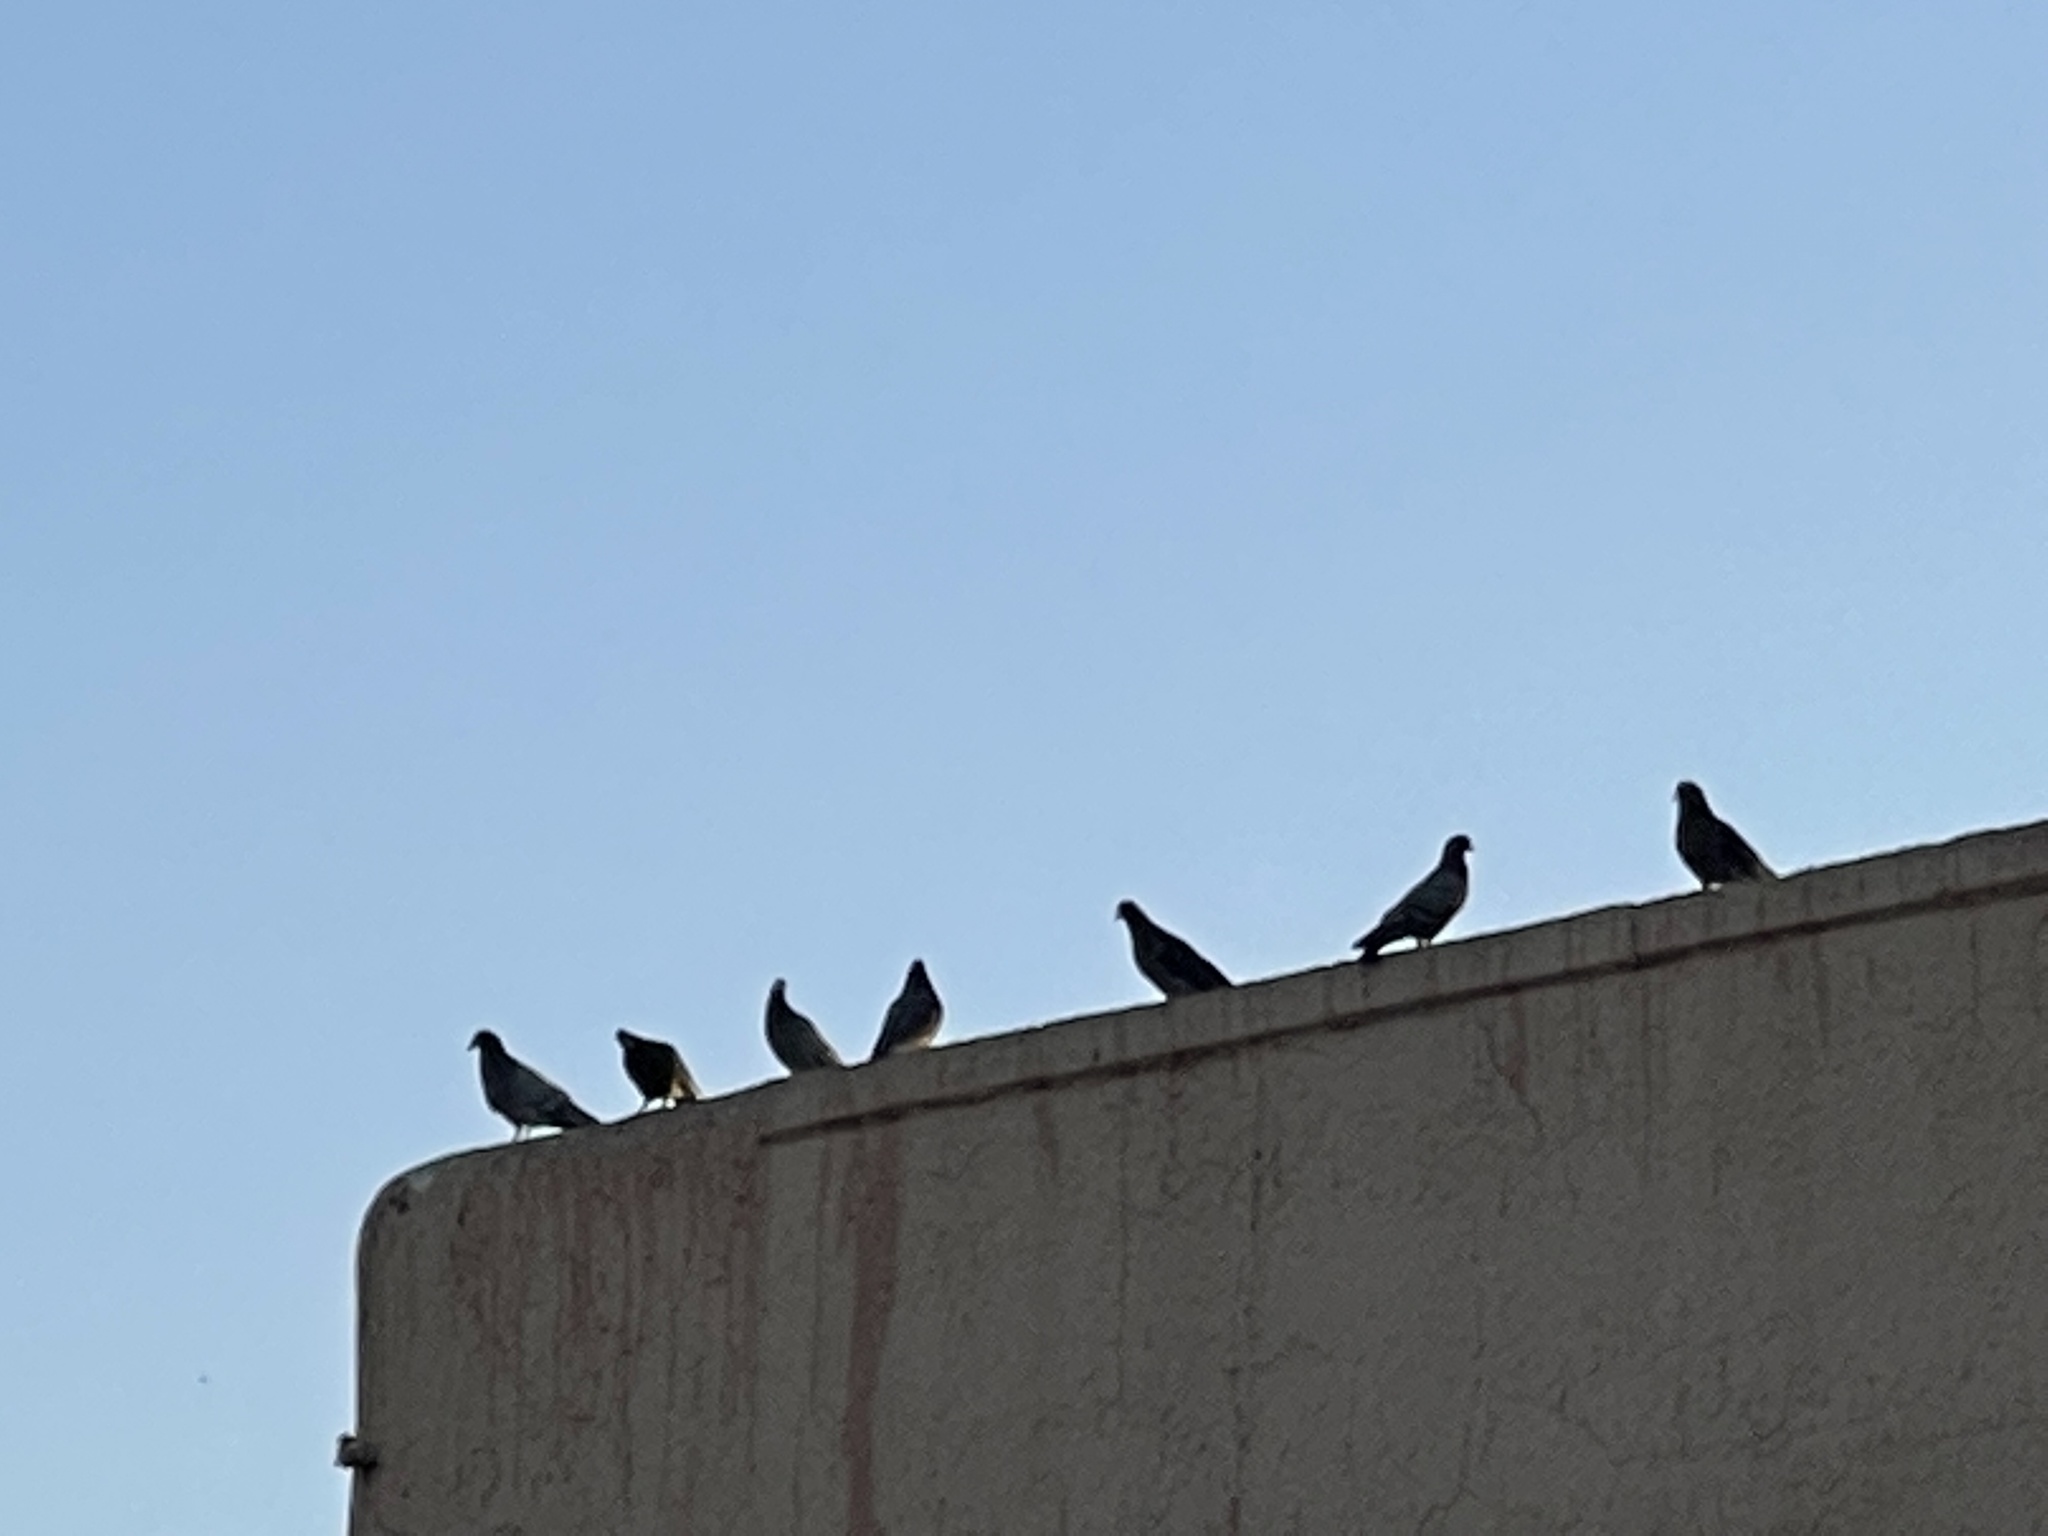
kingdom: Animalia
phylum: Chordata
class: Aves
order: Columbiformes
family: Columbidae
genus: Columba
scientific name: Columba livia
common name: Rock pigeon
